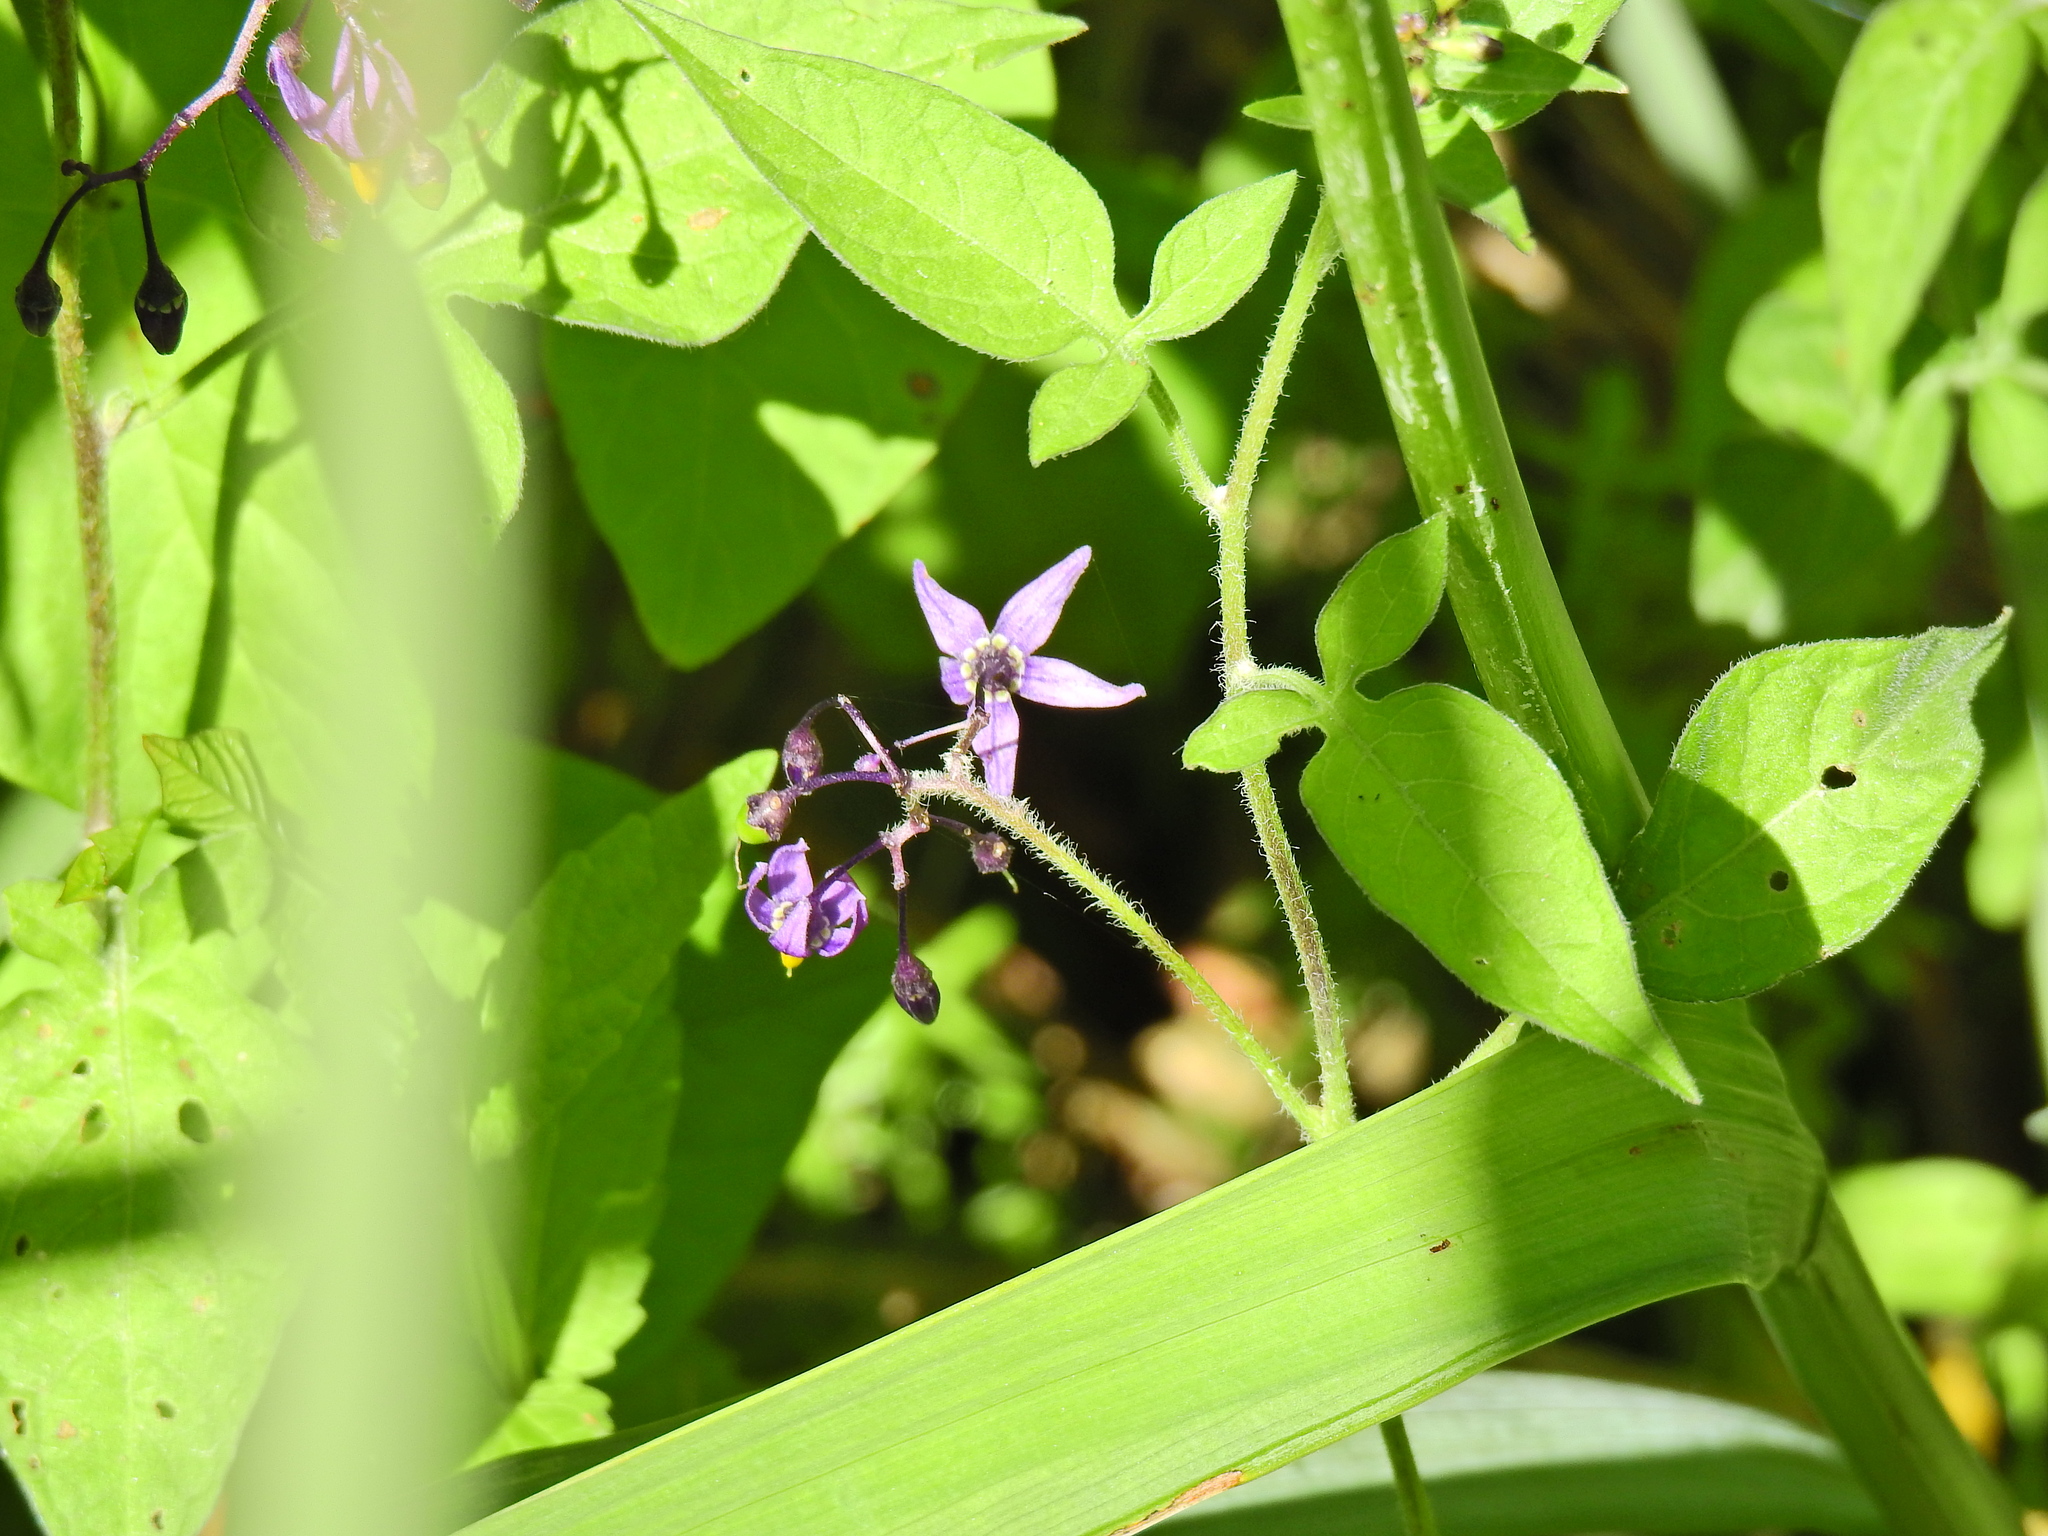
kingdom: Plantae
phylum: Tracheophyta
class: Magnoliopsida
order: Solanales
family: Solanaceae
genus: Solanum
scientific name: Solanum dulcamara
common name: Climbing nightshade
